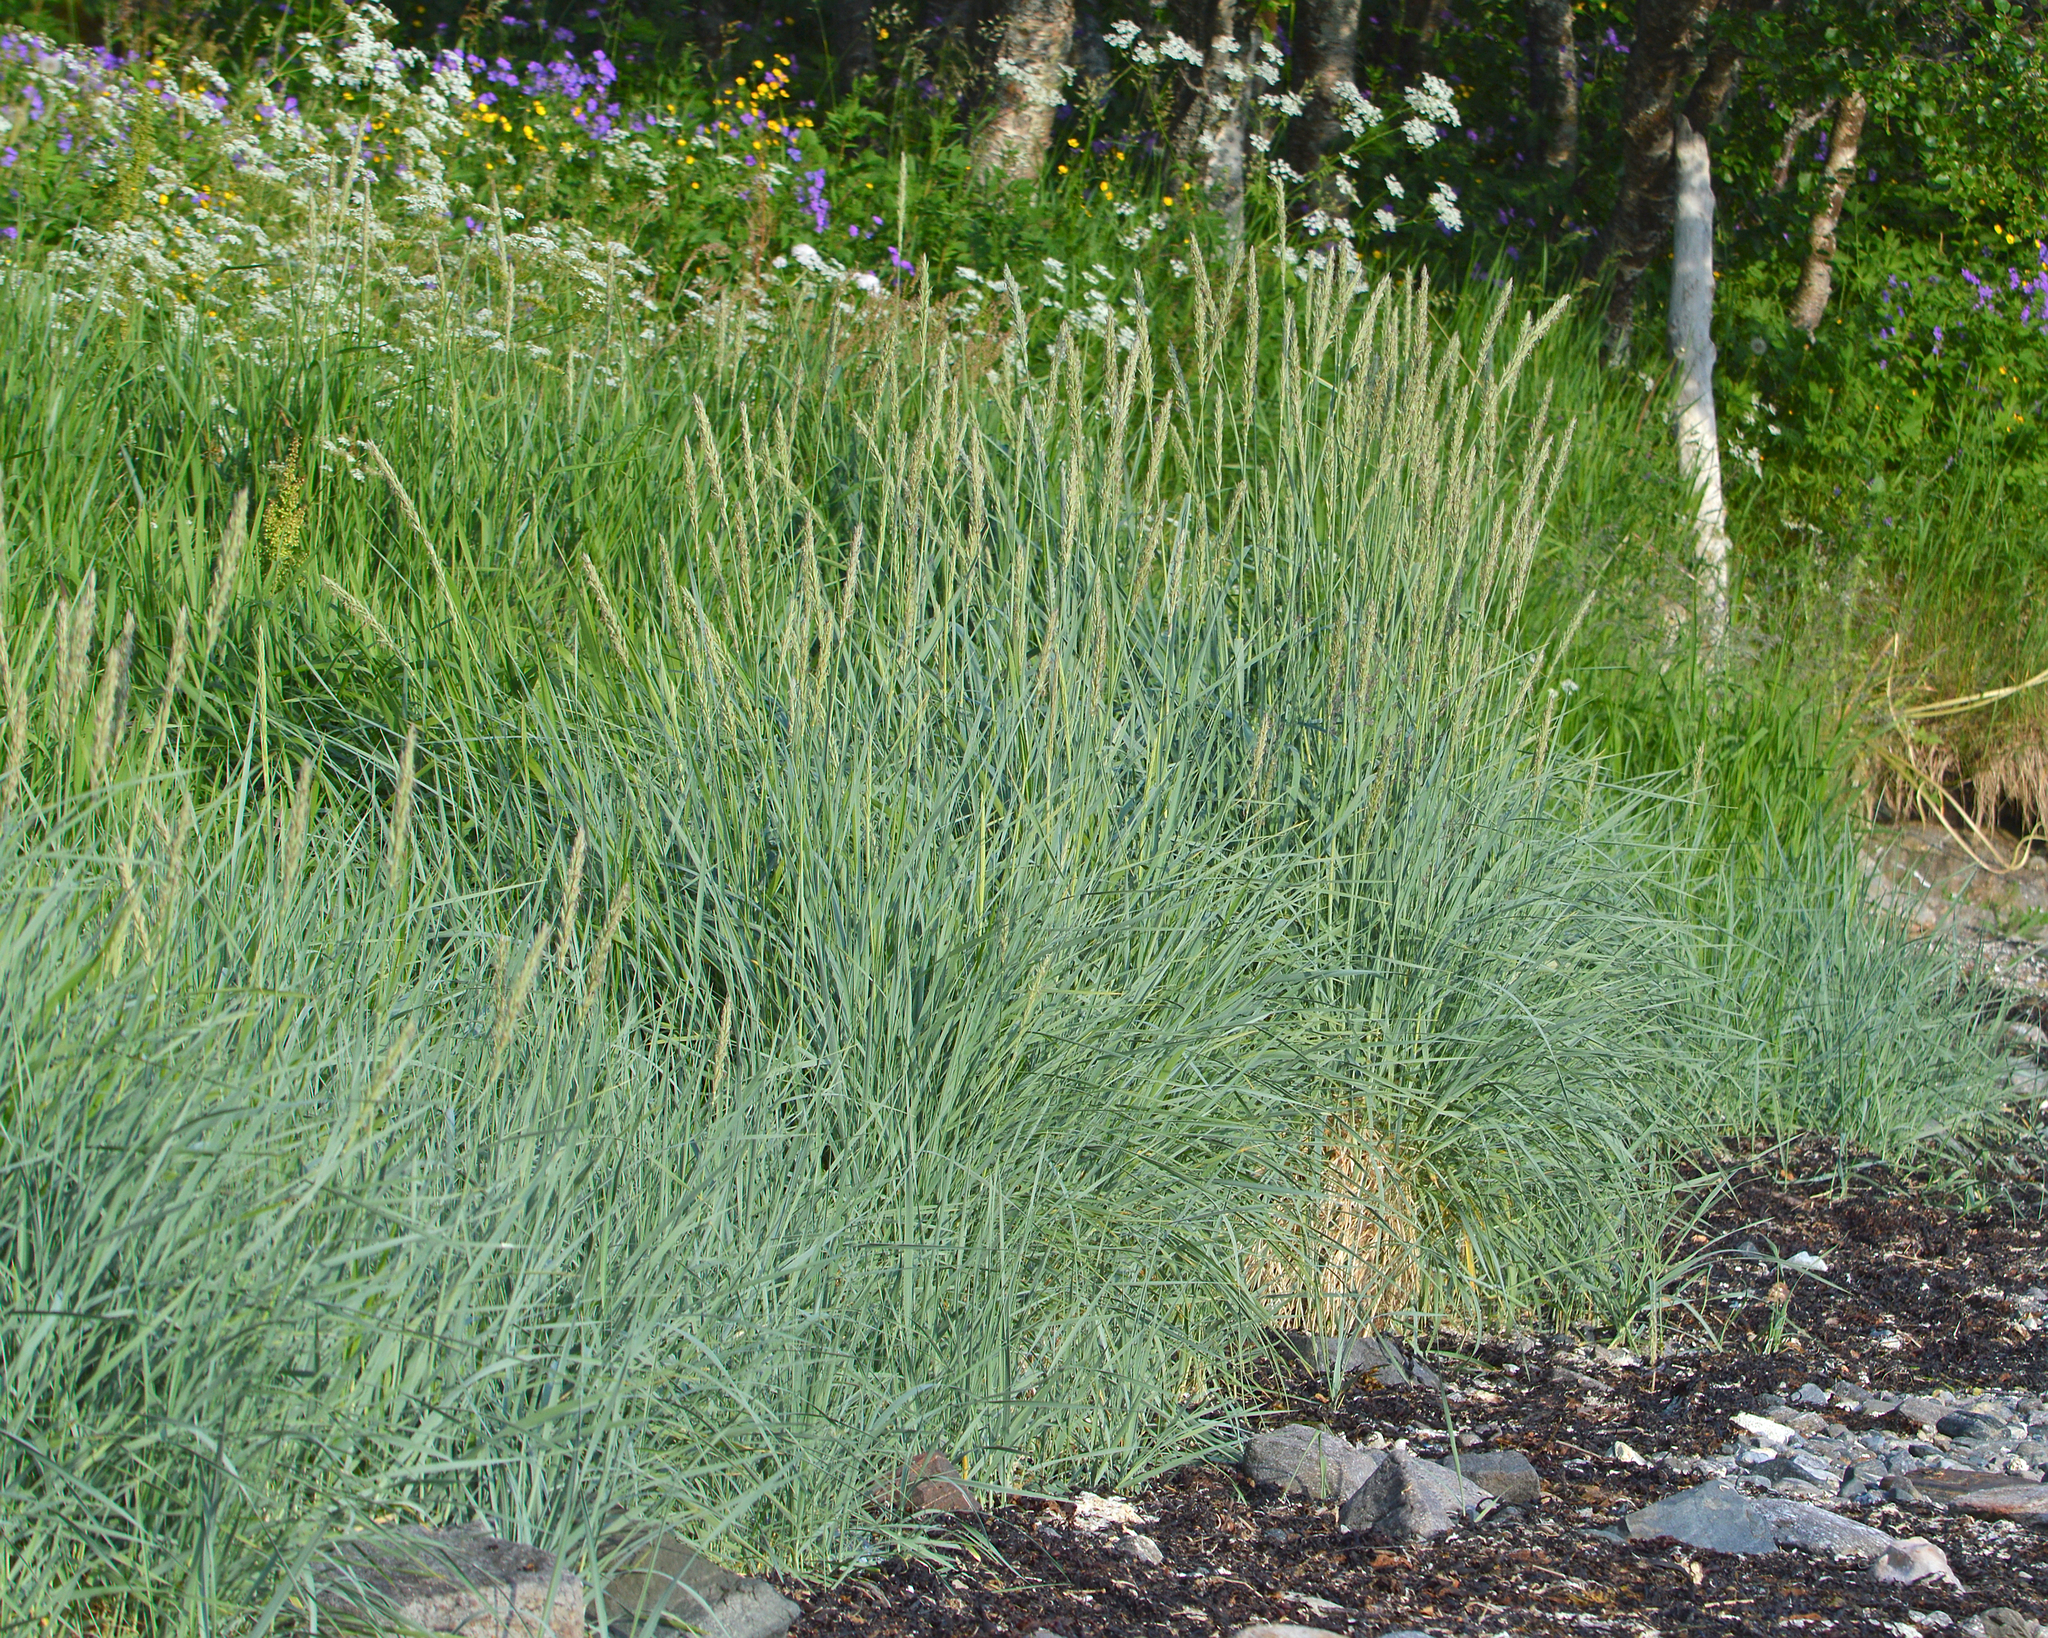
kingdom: Plantae
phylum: Tracheophyta
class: Liliopsida
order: Poales
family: Poaceae
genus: Leymus
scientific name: Leymus arenarius
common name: Lyme-grass
